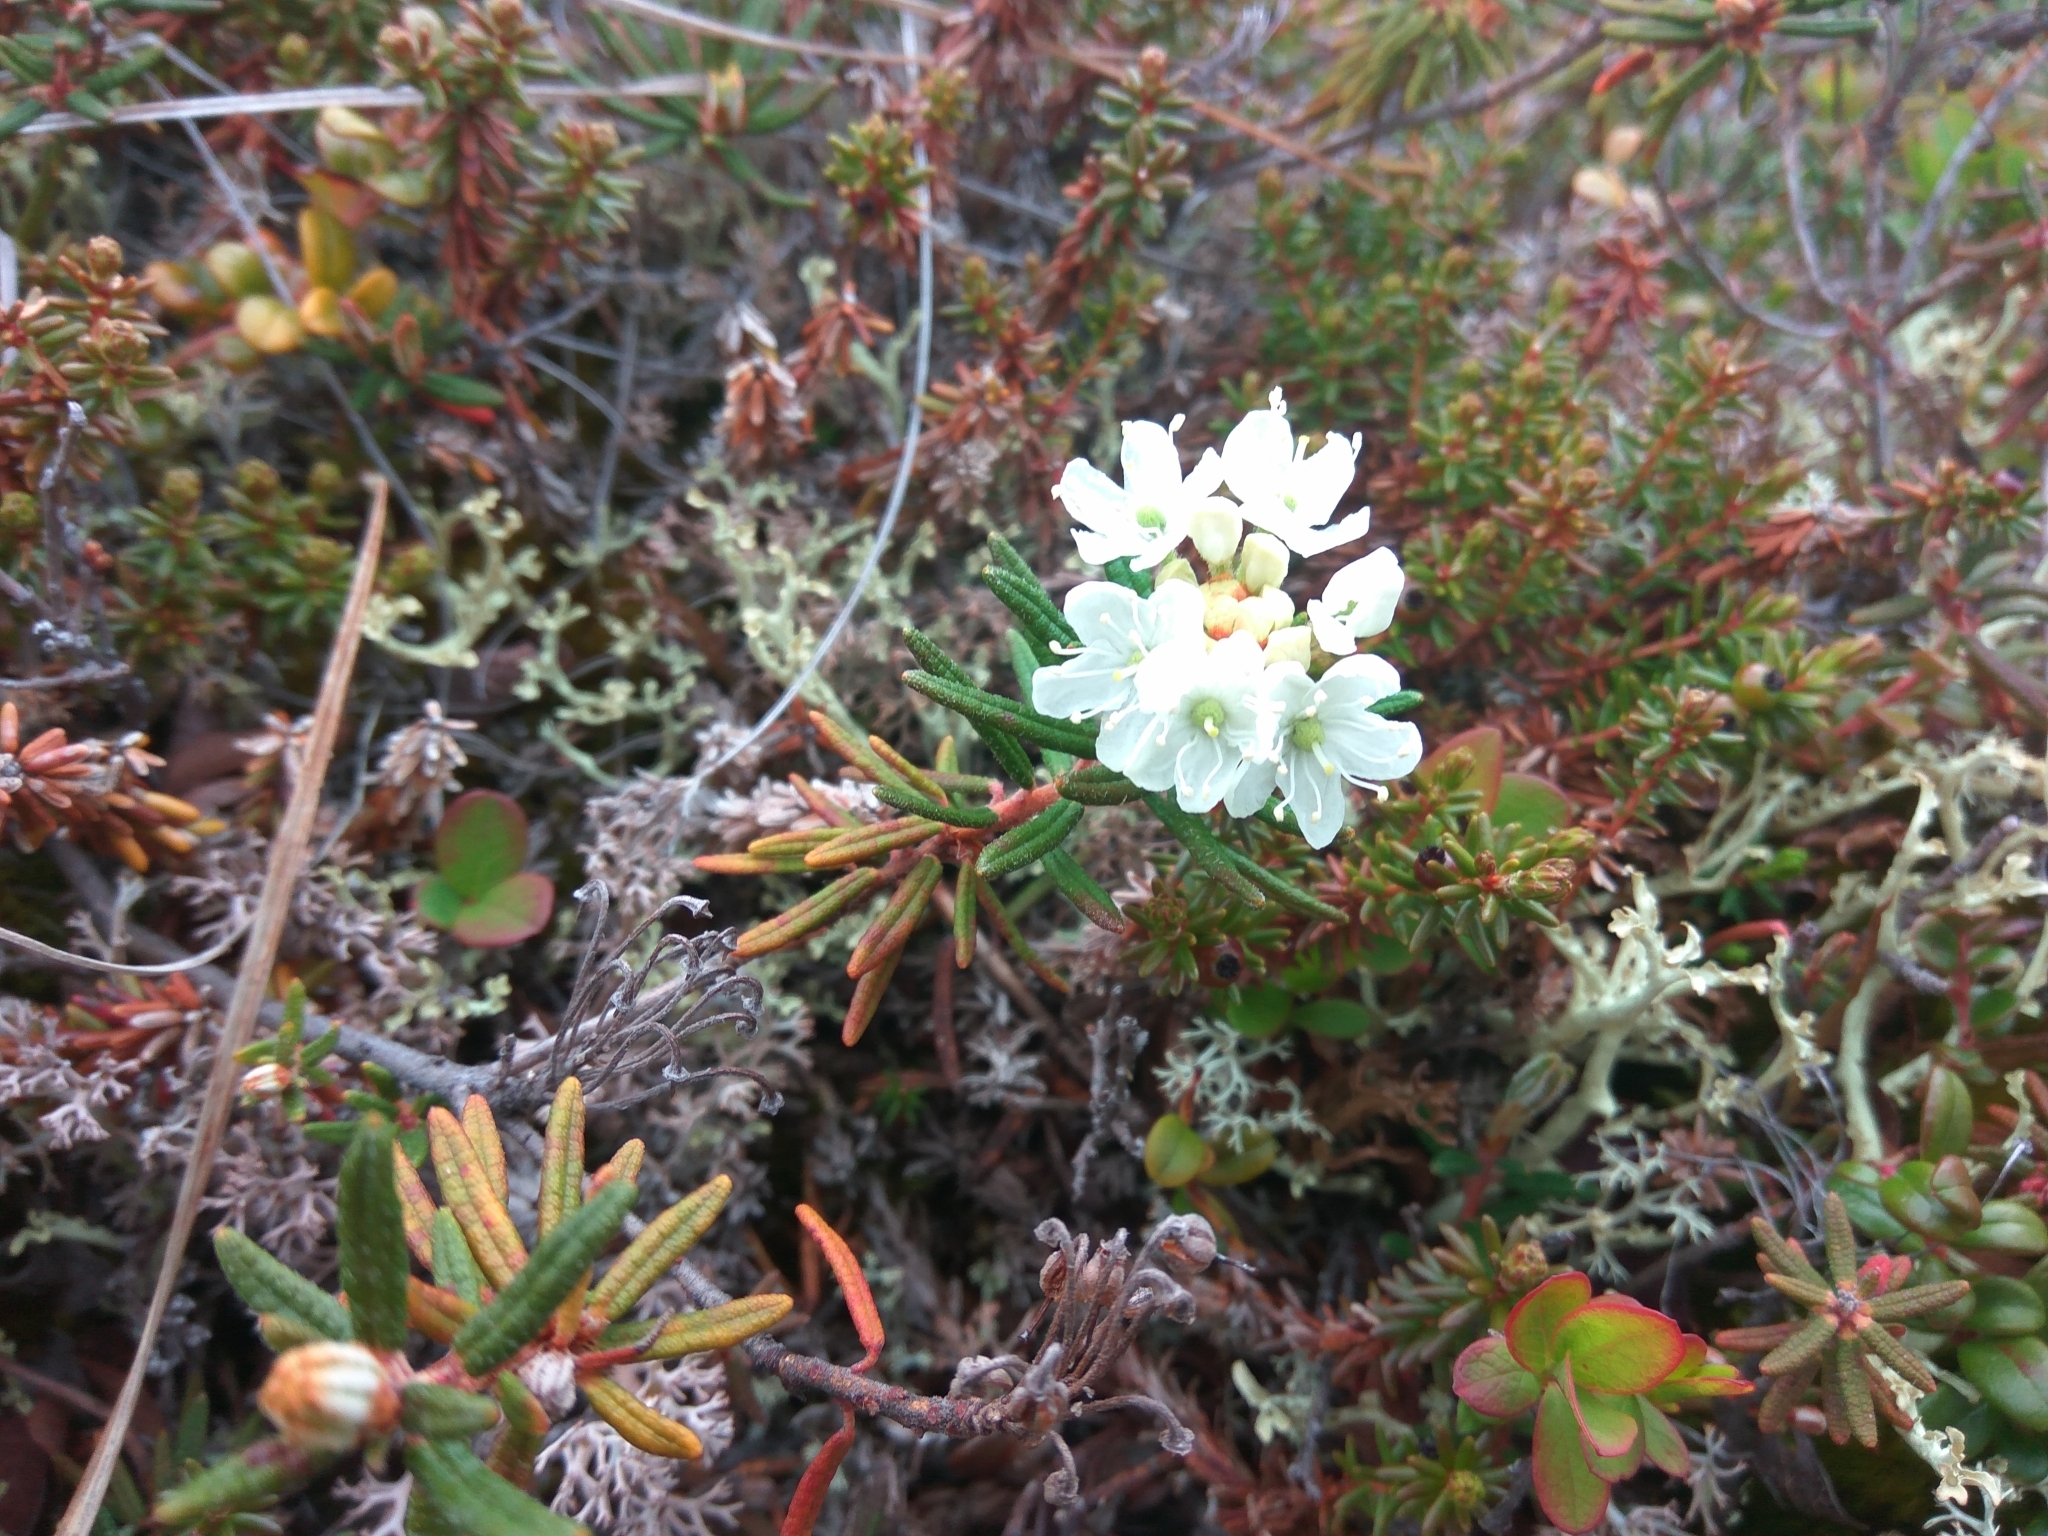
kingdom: Plantae
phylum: Tracheophyta
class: Magnoliopsida
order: Ericales
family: Ericaceae
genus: Rhododendron
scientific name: Rhododendron tomentosum
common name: Marsh labrador tea
